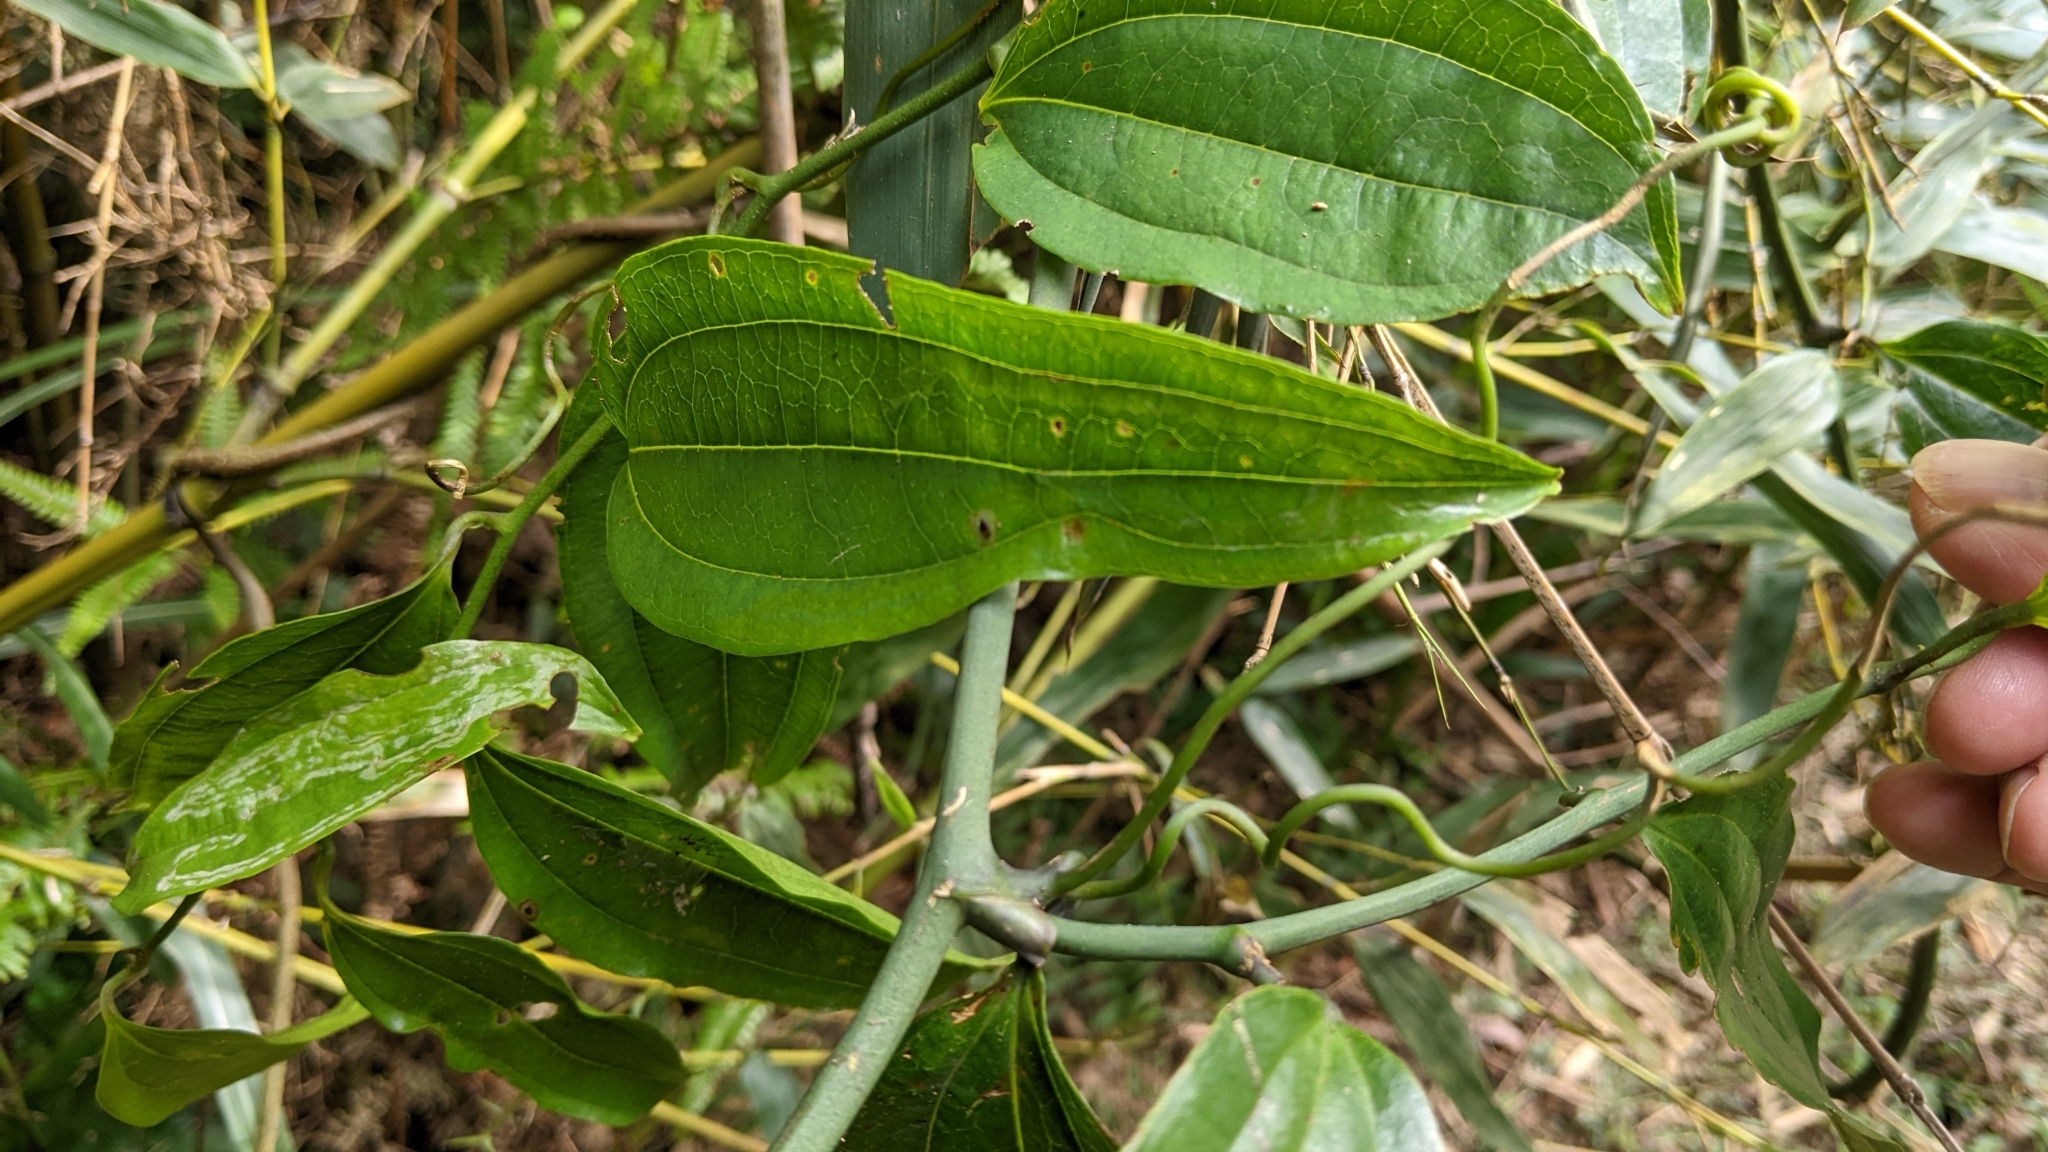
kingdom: Plantae
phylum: Tracheophyta
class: Liliopsida
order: Liliales
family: Smilacaceae
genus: Smilax
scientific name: Smilax lanceifolia
